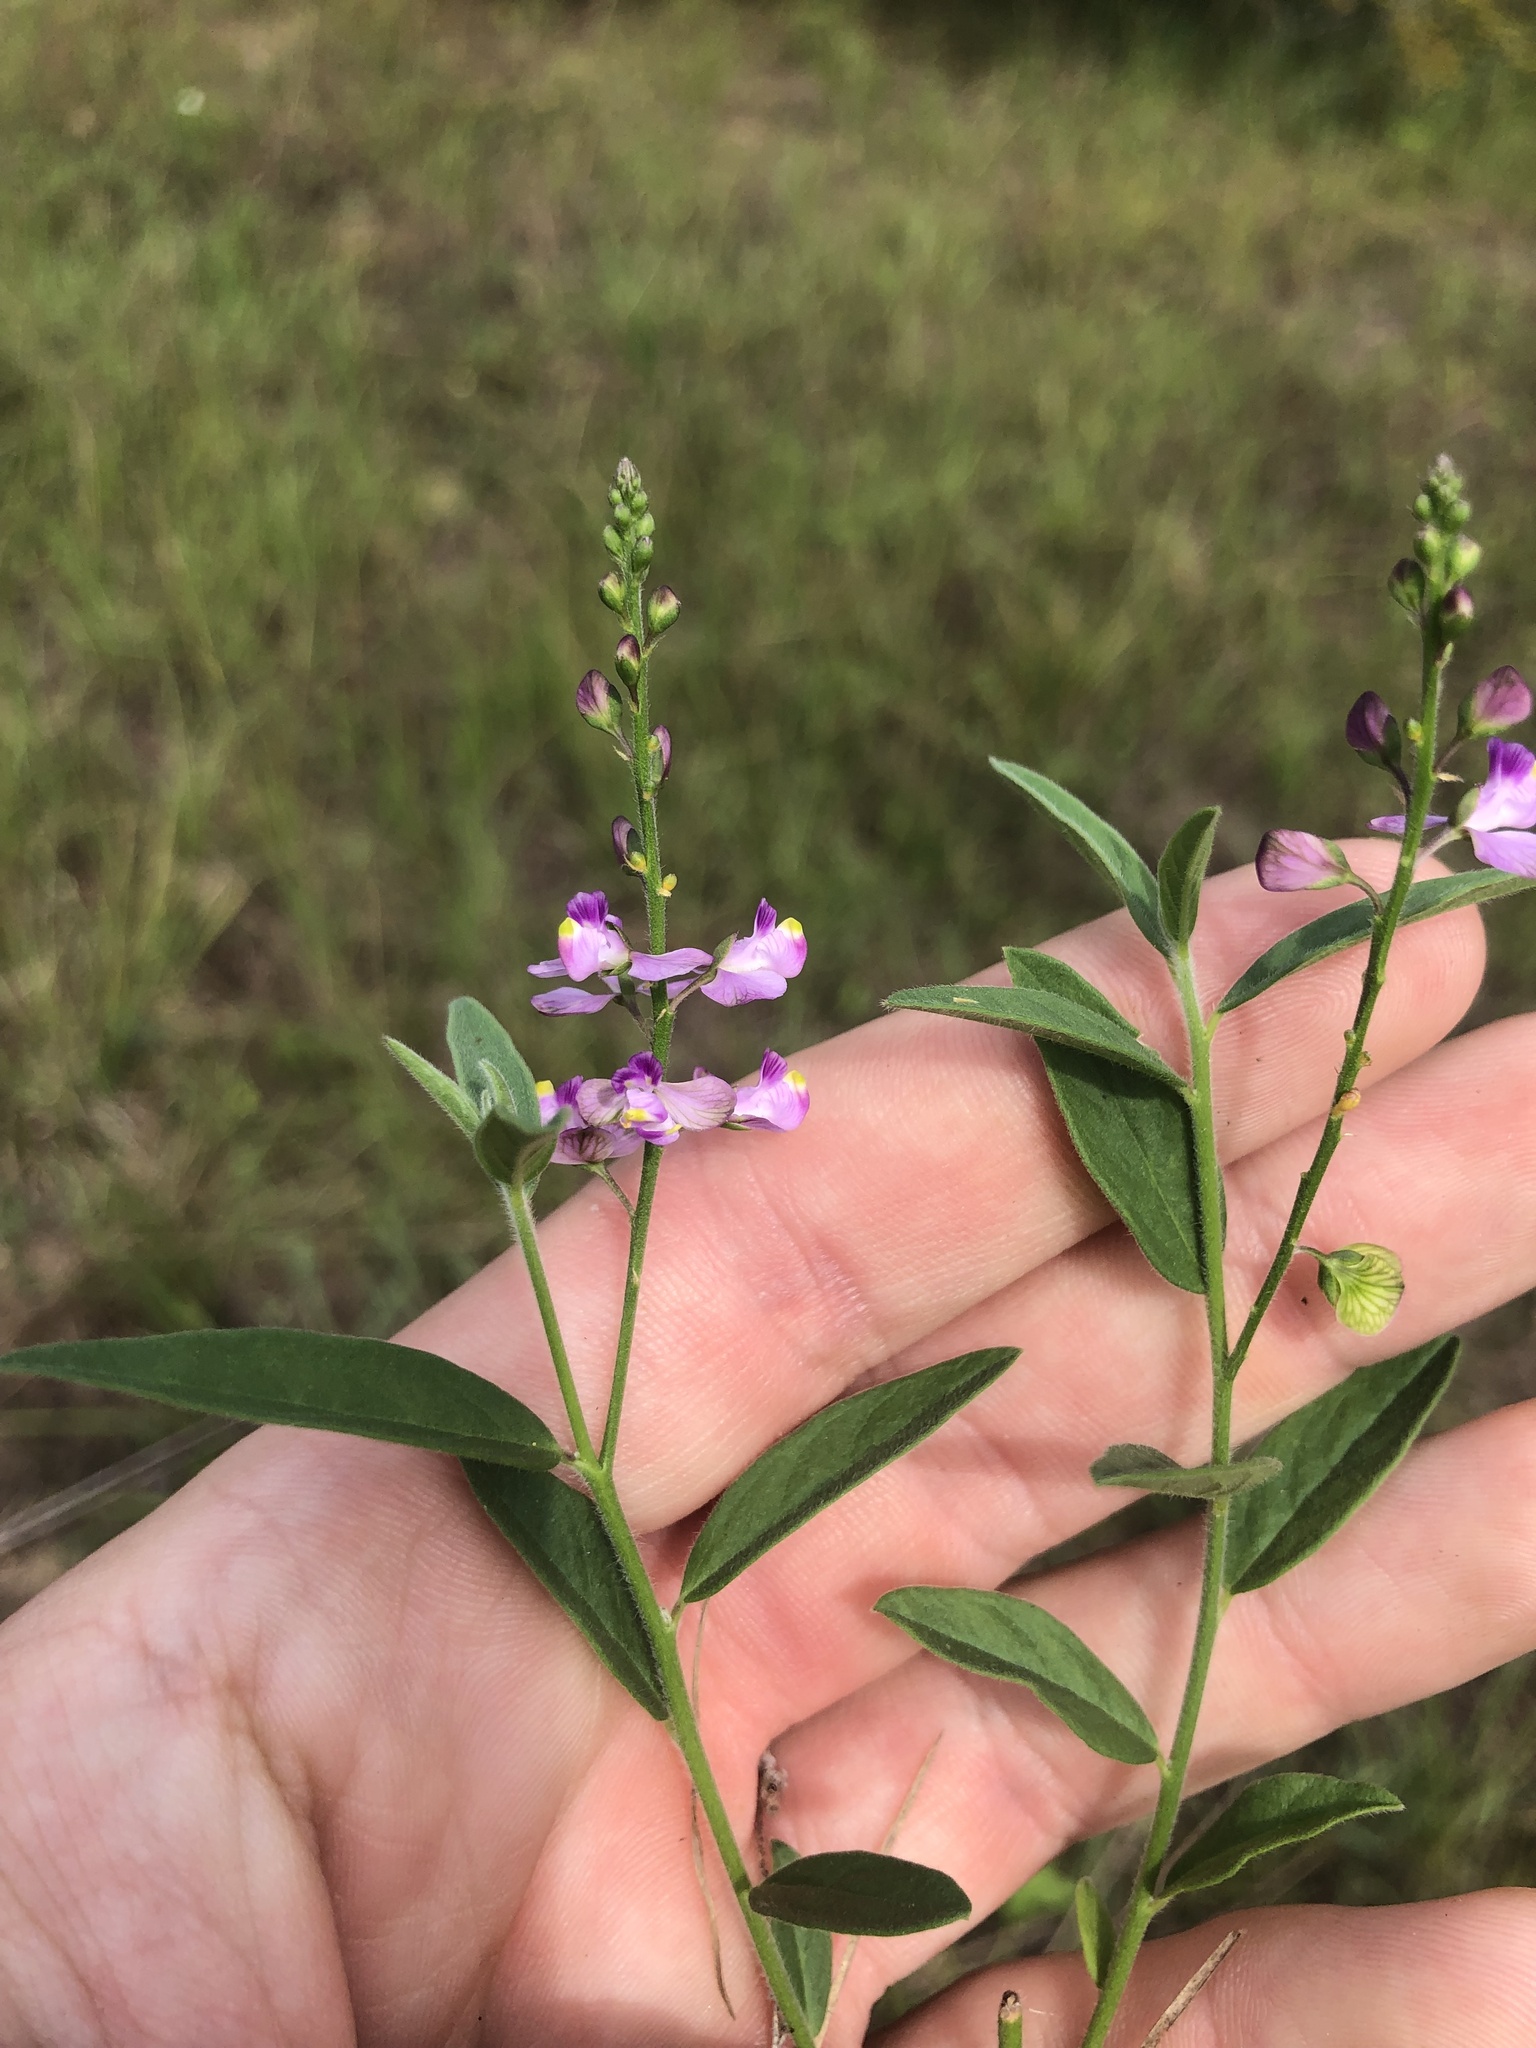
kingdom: Plantae
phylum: Tracheophyta
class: Magnoliopsida
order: Fabales
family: Polygalaceae
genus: Asemeia
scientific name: Asemeia grandiflora
